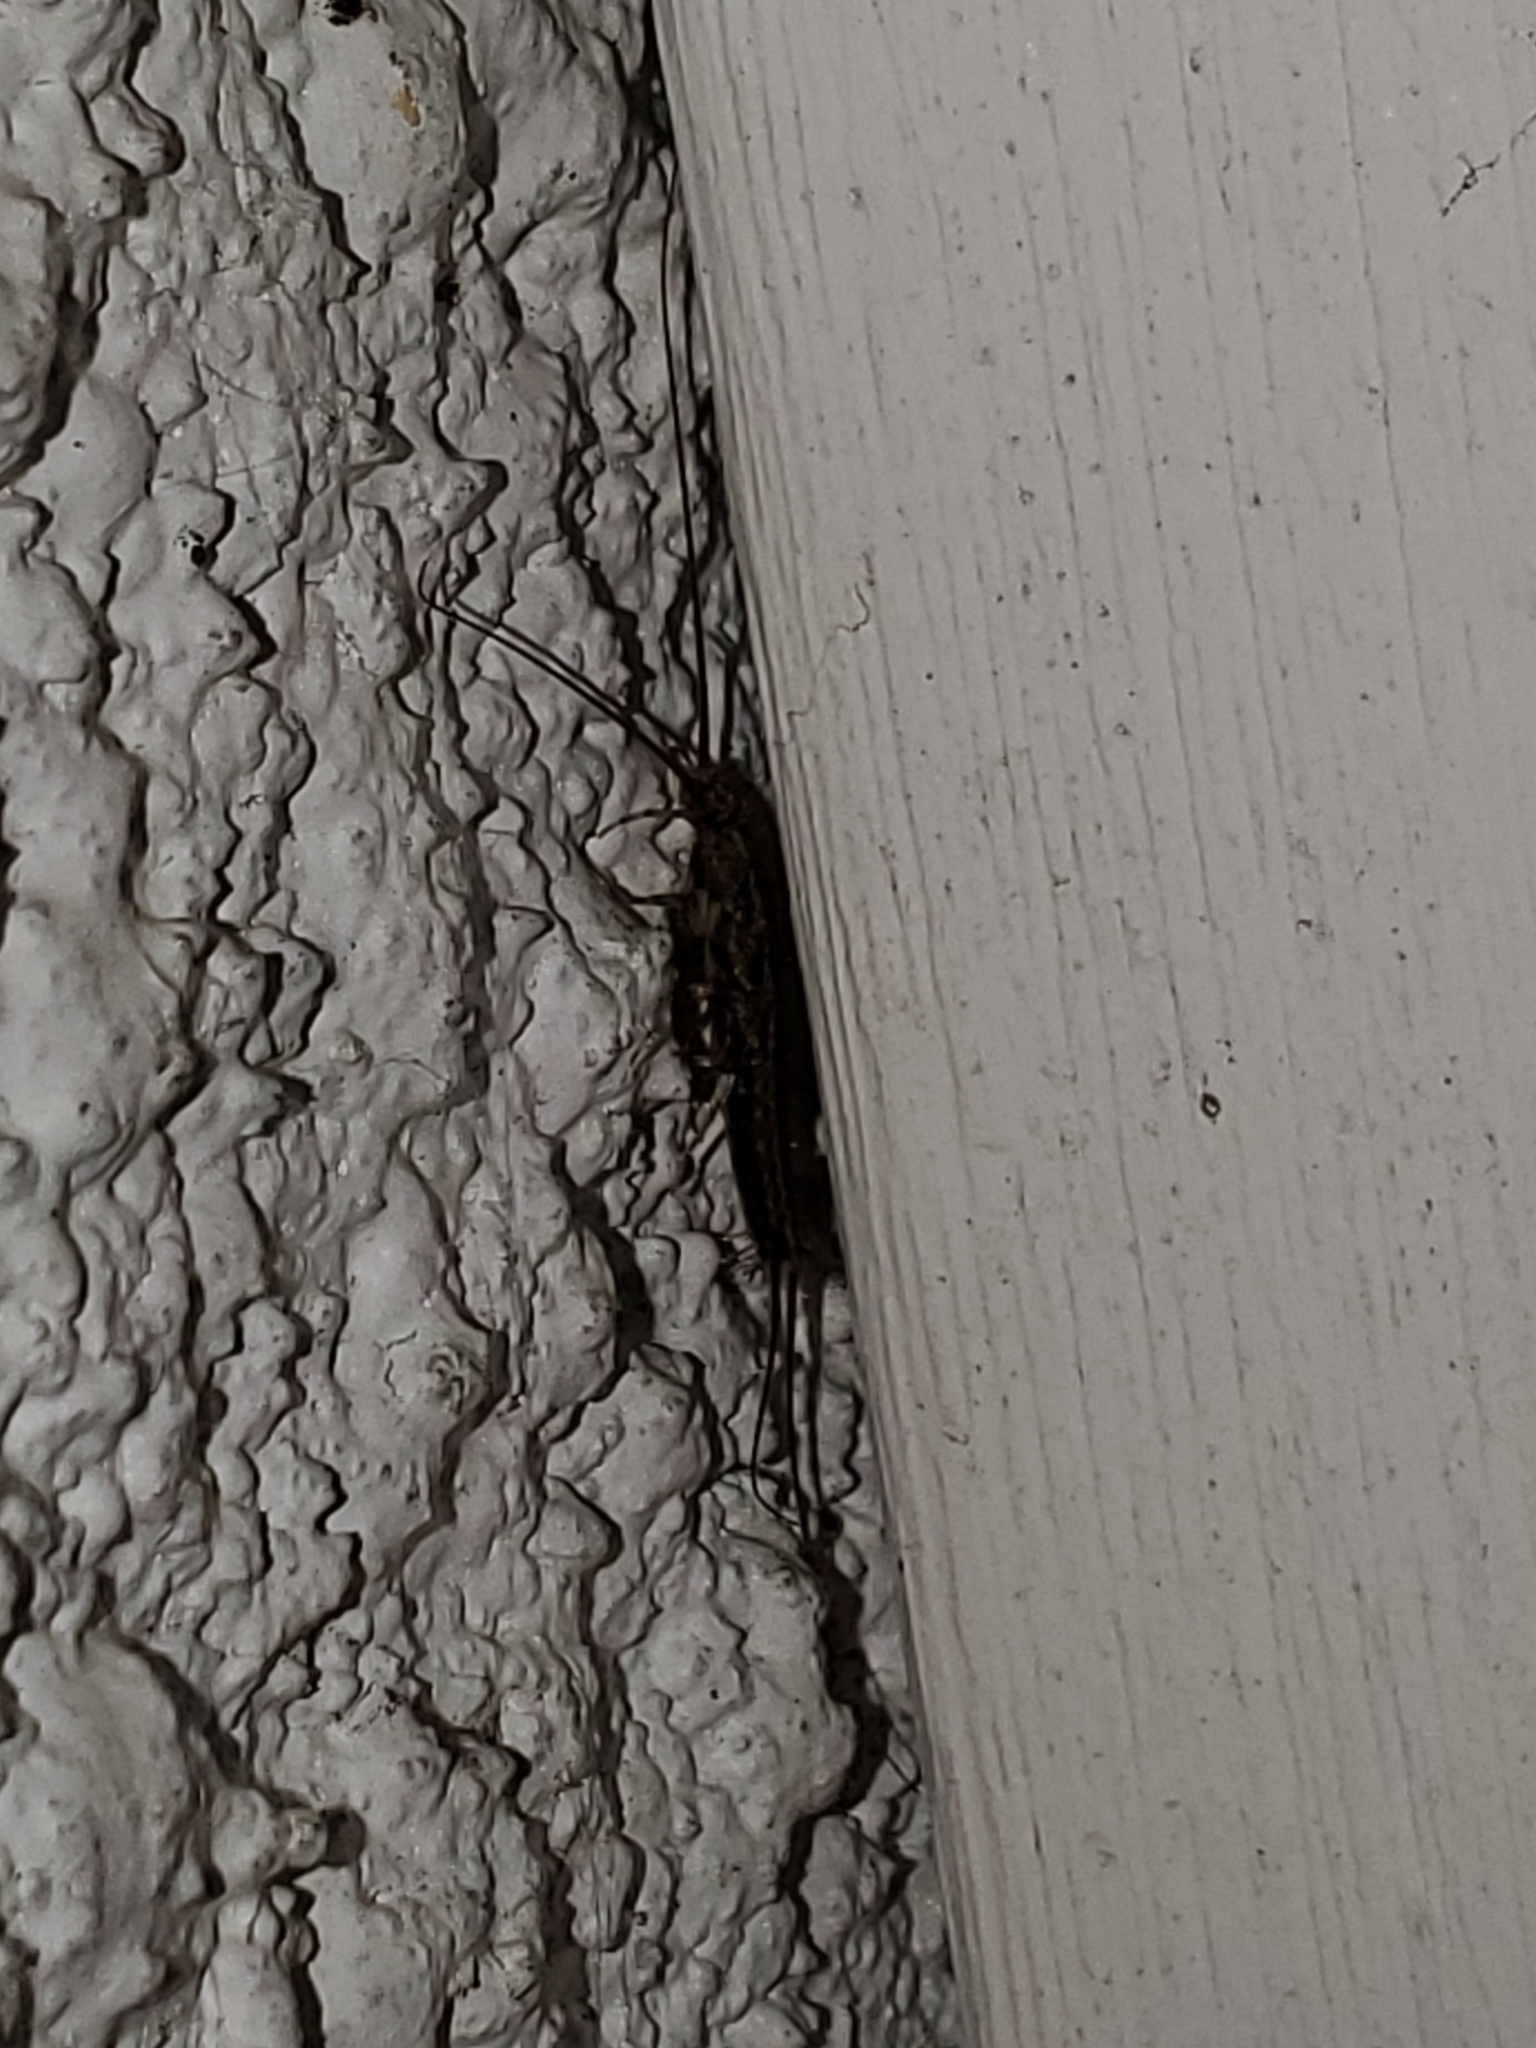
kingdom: Animalia
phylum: Arthropoda
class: Insecta
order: Zygentoma
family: Lepismatidae
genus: Ctenolepisma
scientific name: Ctenolepisma lineata
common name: Four-lined silverfish
